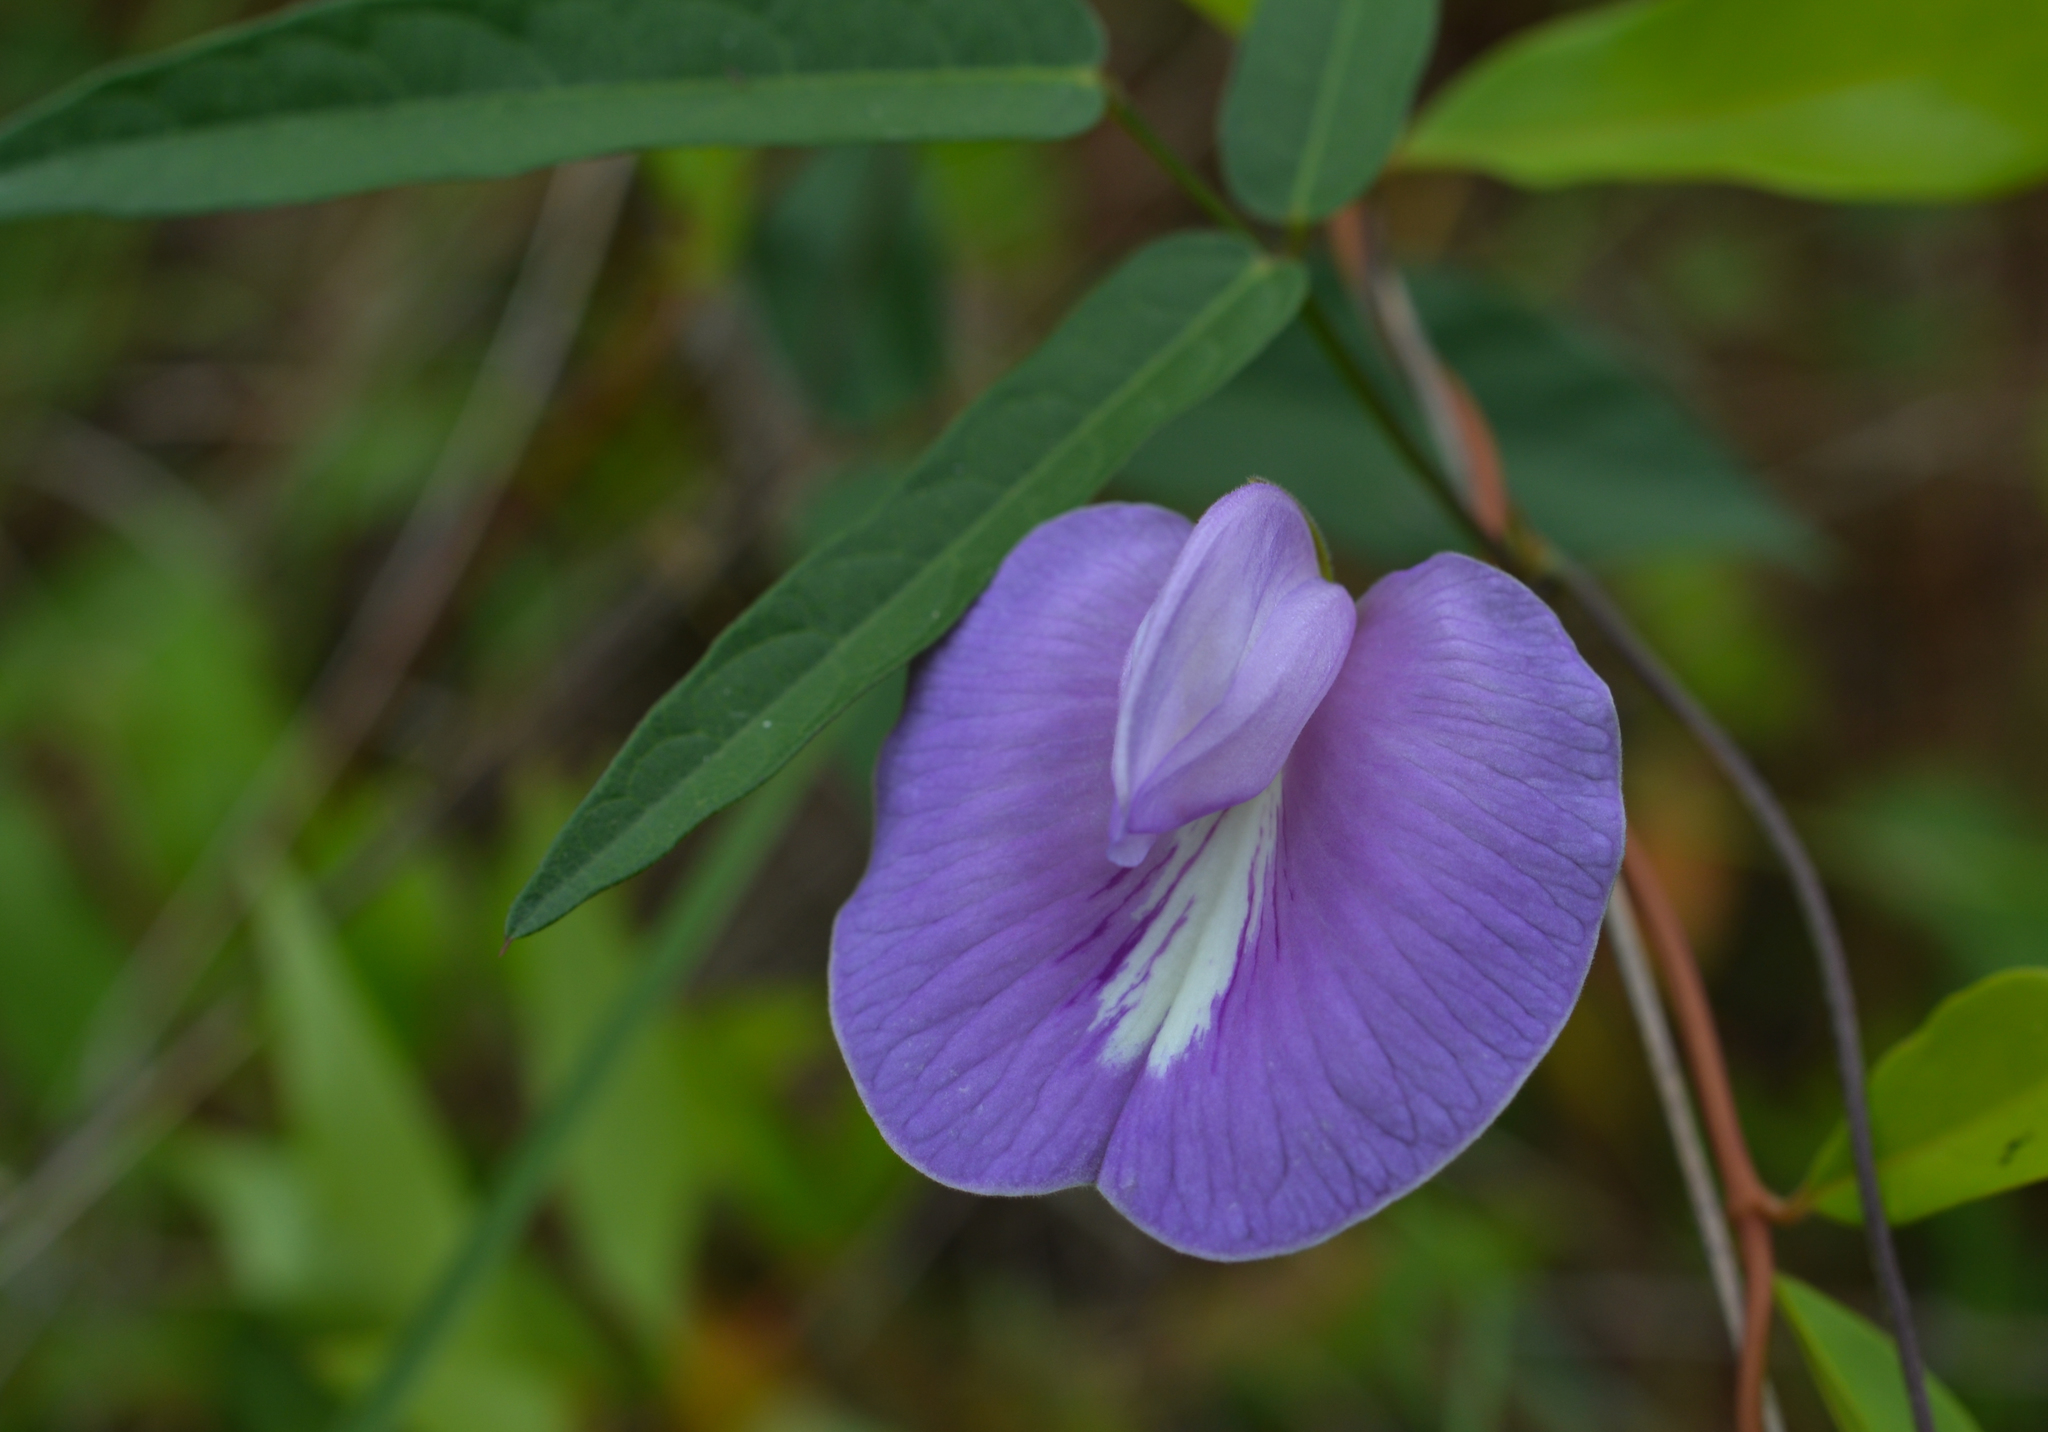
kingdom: Plantae
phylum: Tracheophyta
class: Magnoliopsida
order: Fabales
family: Fabaceae
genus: Centrosema
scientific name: Centrosema virginianum
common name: Butterfly-pea
